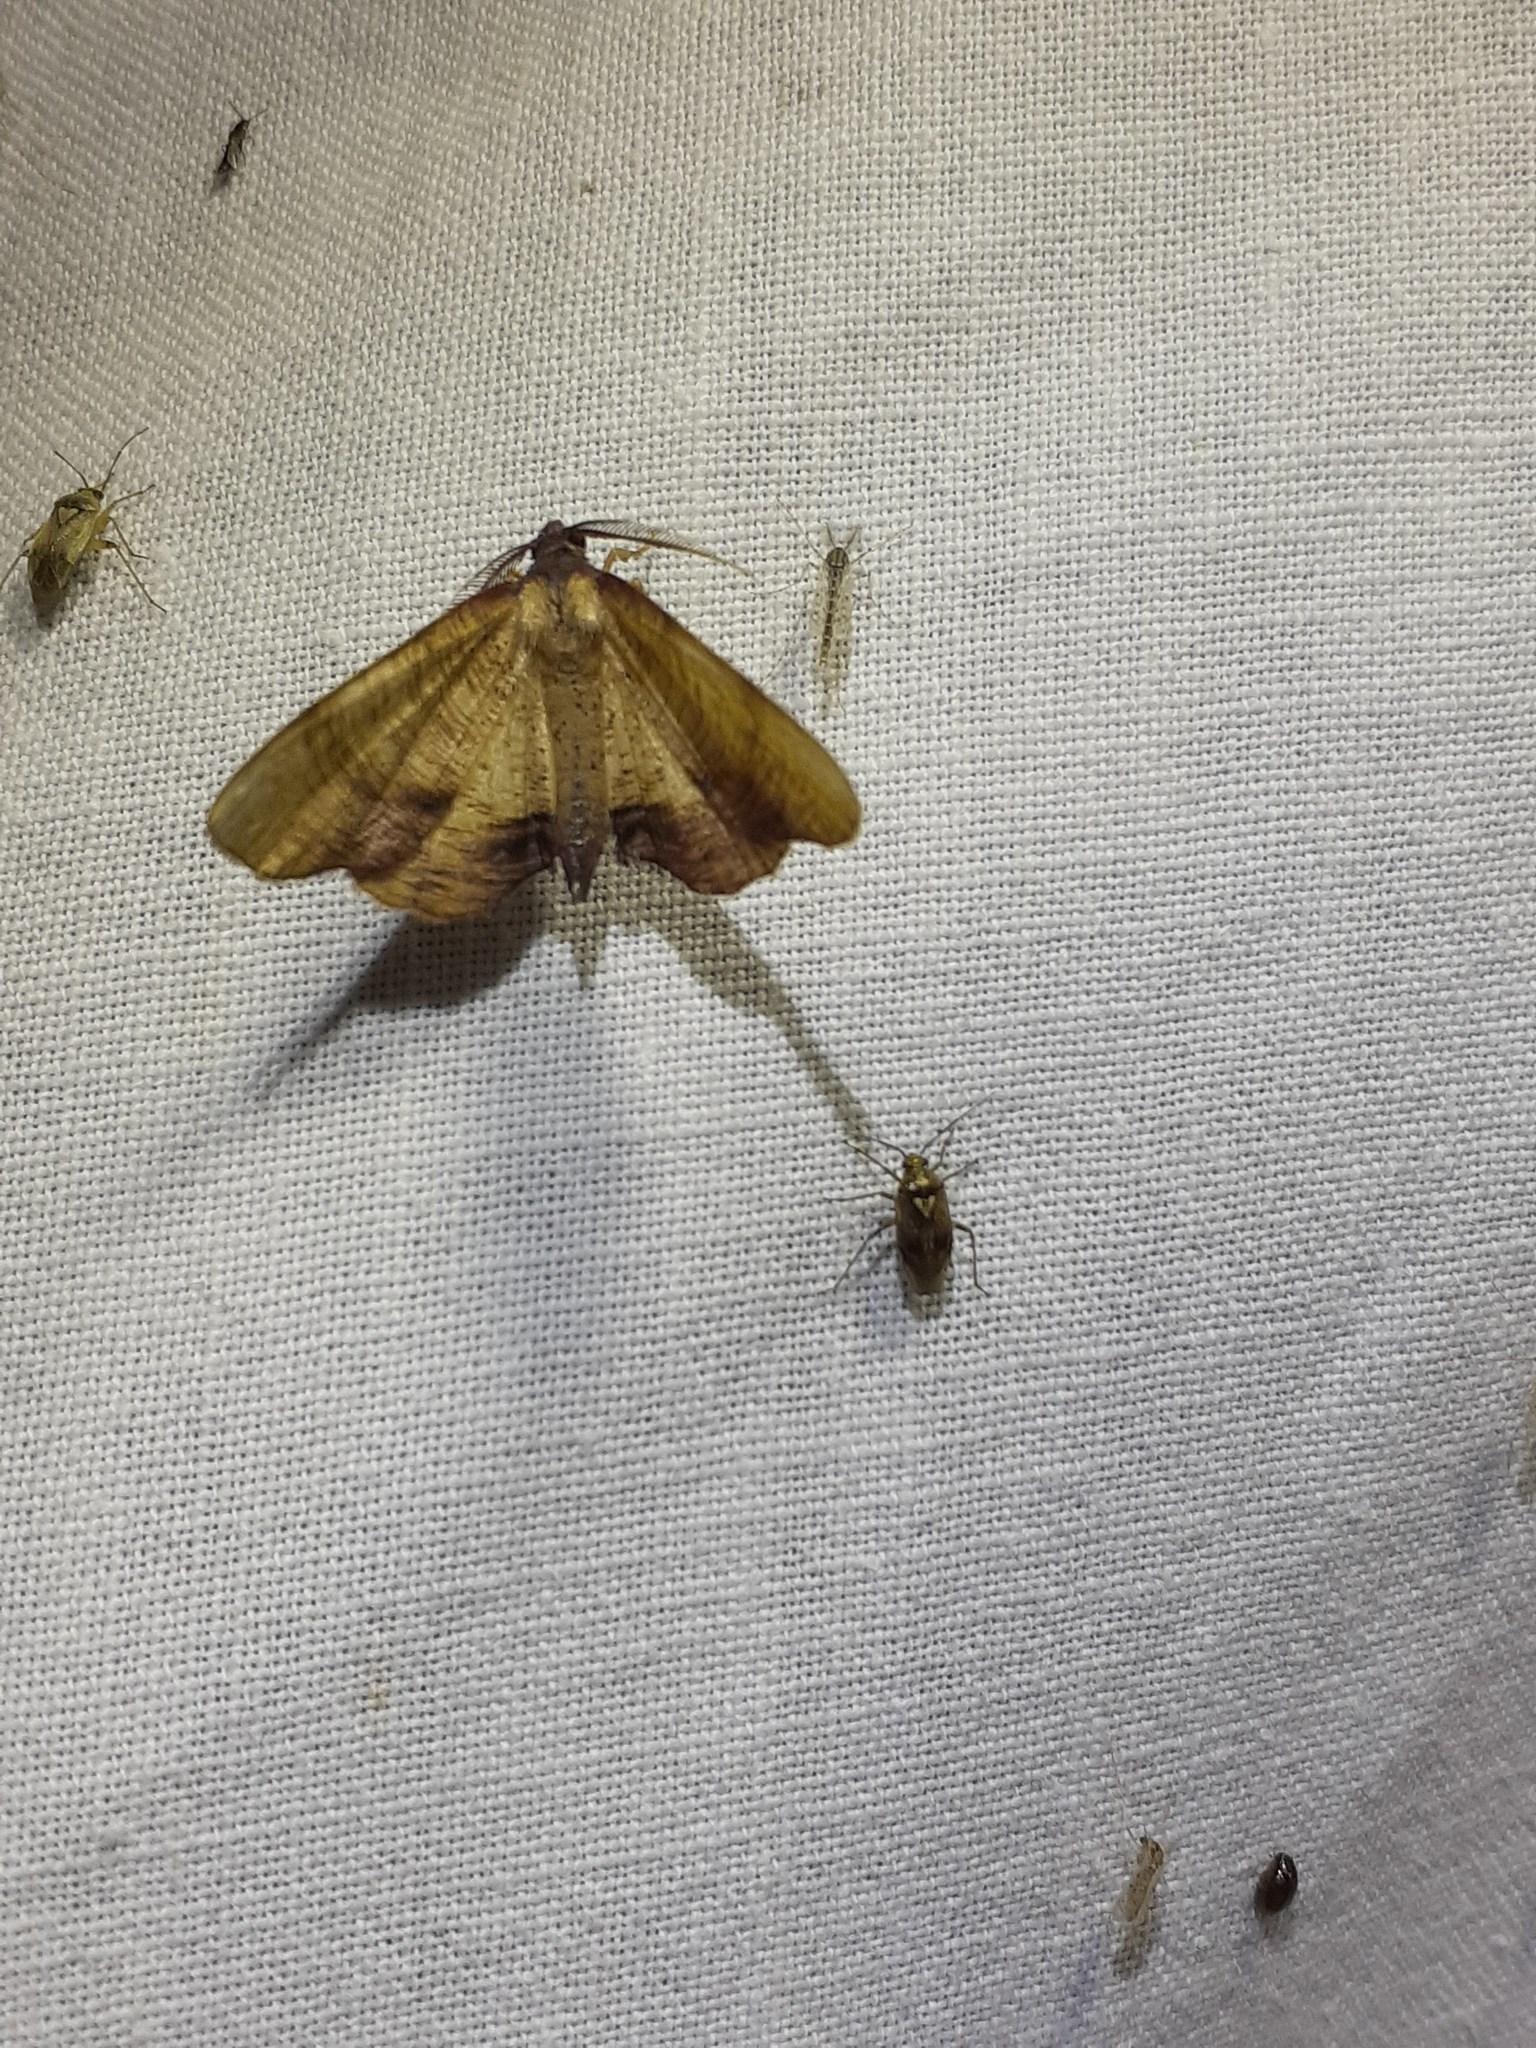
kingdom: Animalia
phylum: Arthropoda
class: Insecta
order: Lepidoptera
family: Geometridae
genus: Plagodis
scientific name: Plagodis dolabraria
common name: Scorched wing
